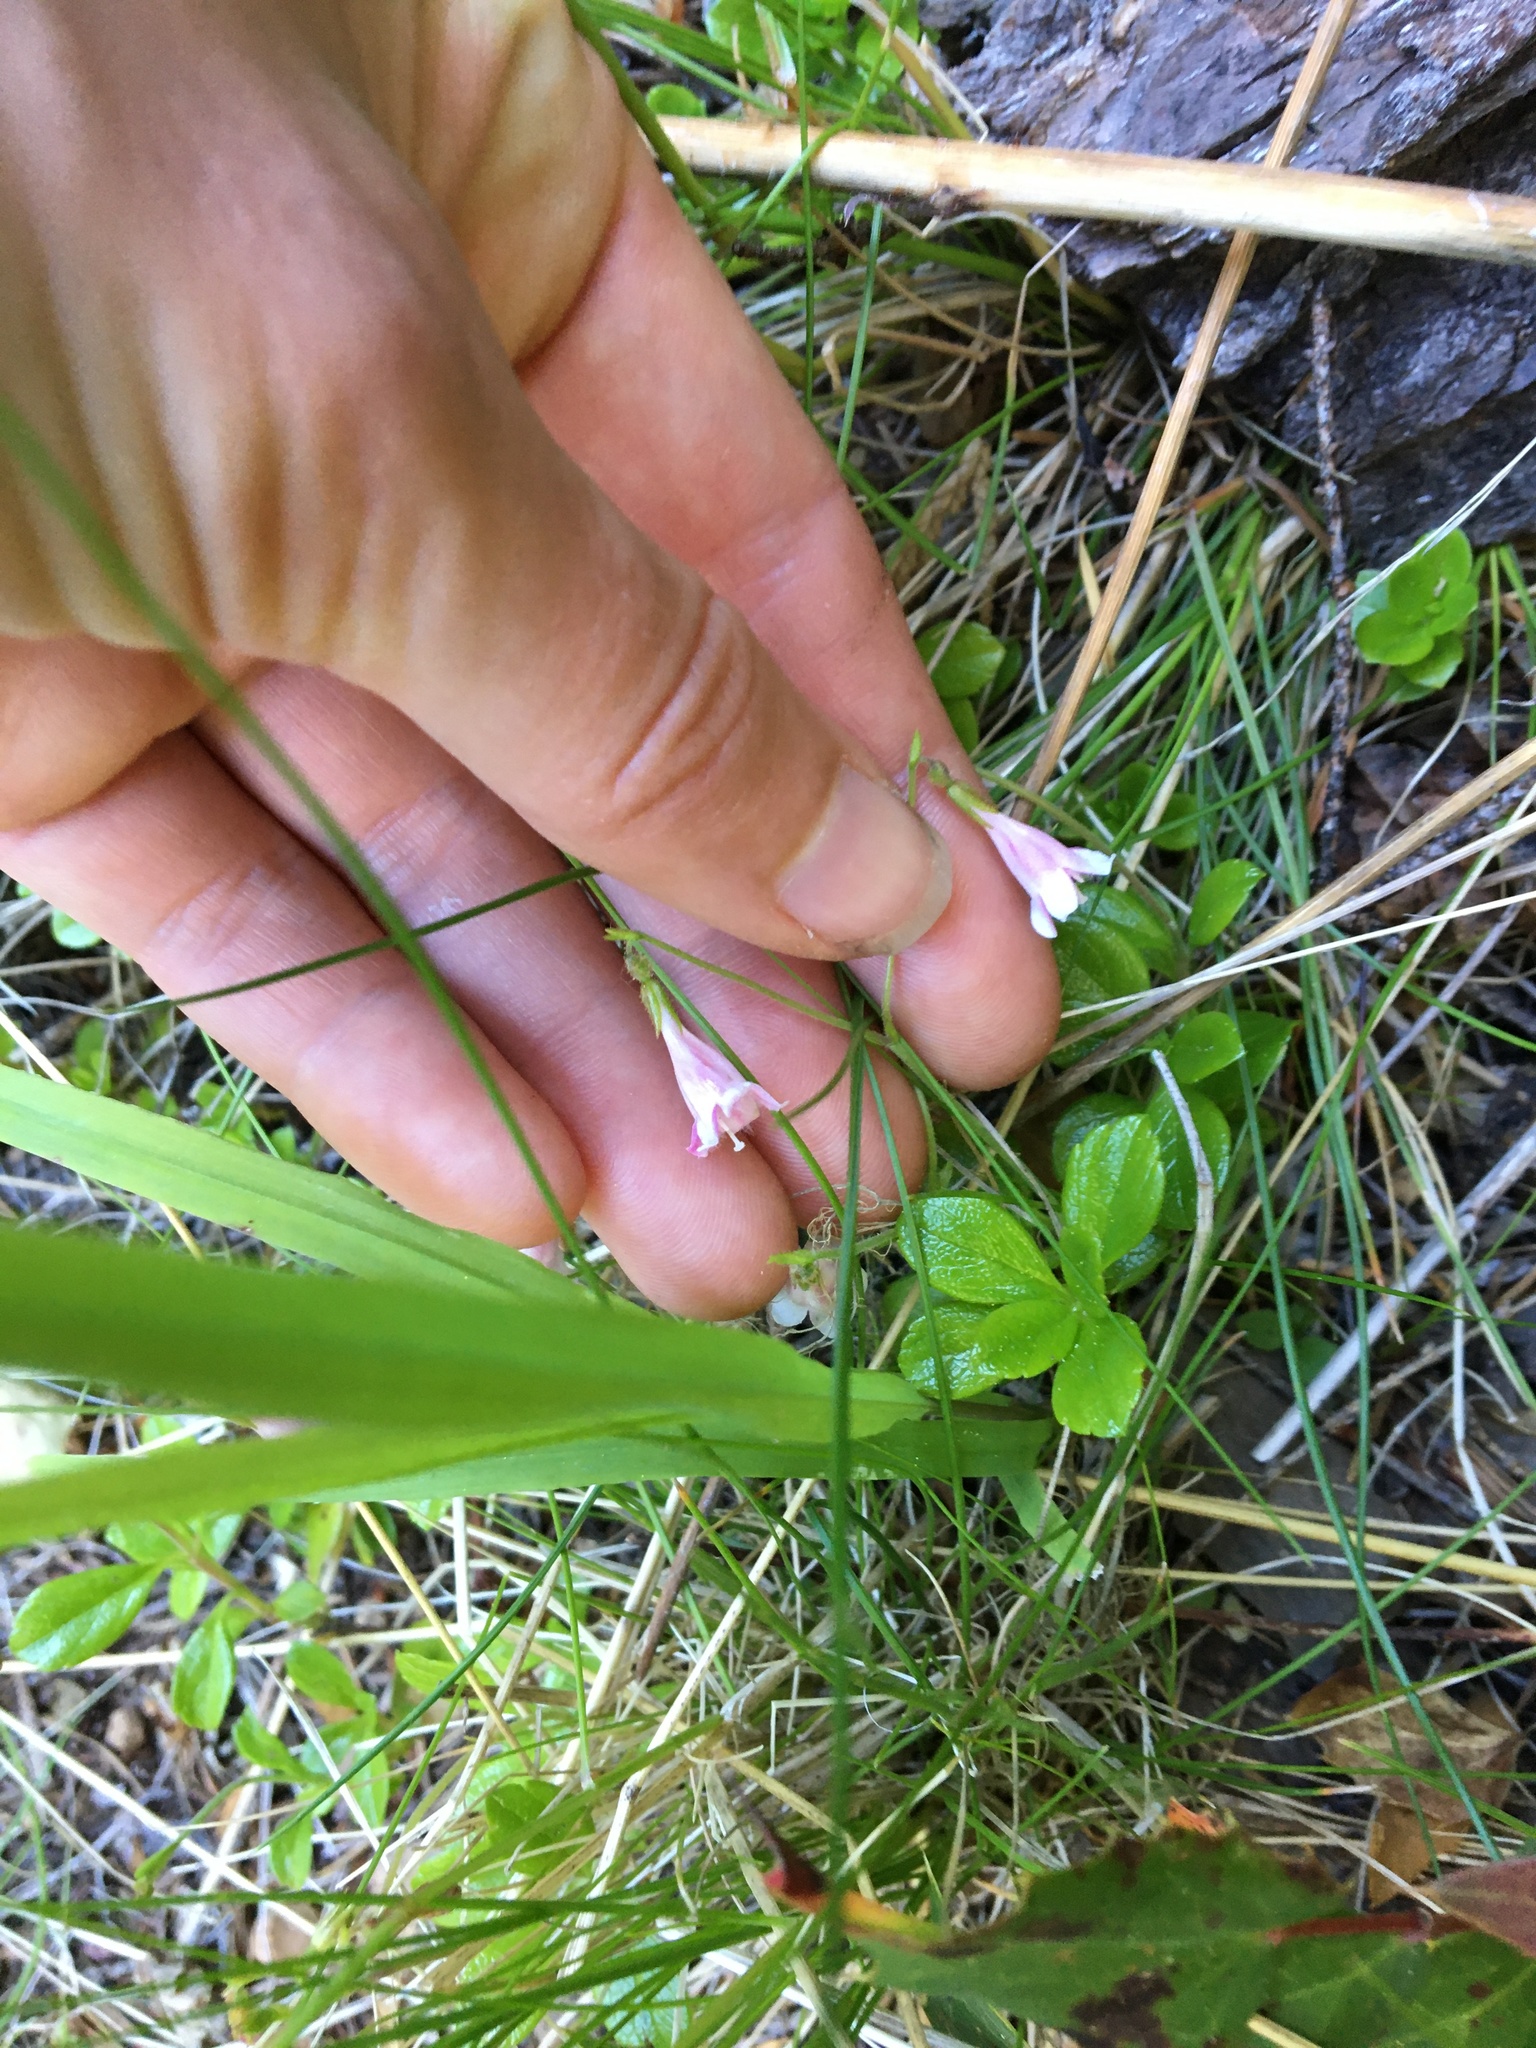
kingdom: Plantae
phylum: Tracheophyta
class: Magnoliopsida
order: Dipsacales
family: Caprifoliaceae
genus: Linnaea
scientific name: Linnaea borealis
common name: Twinflower
